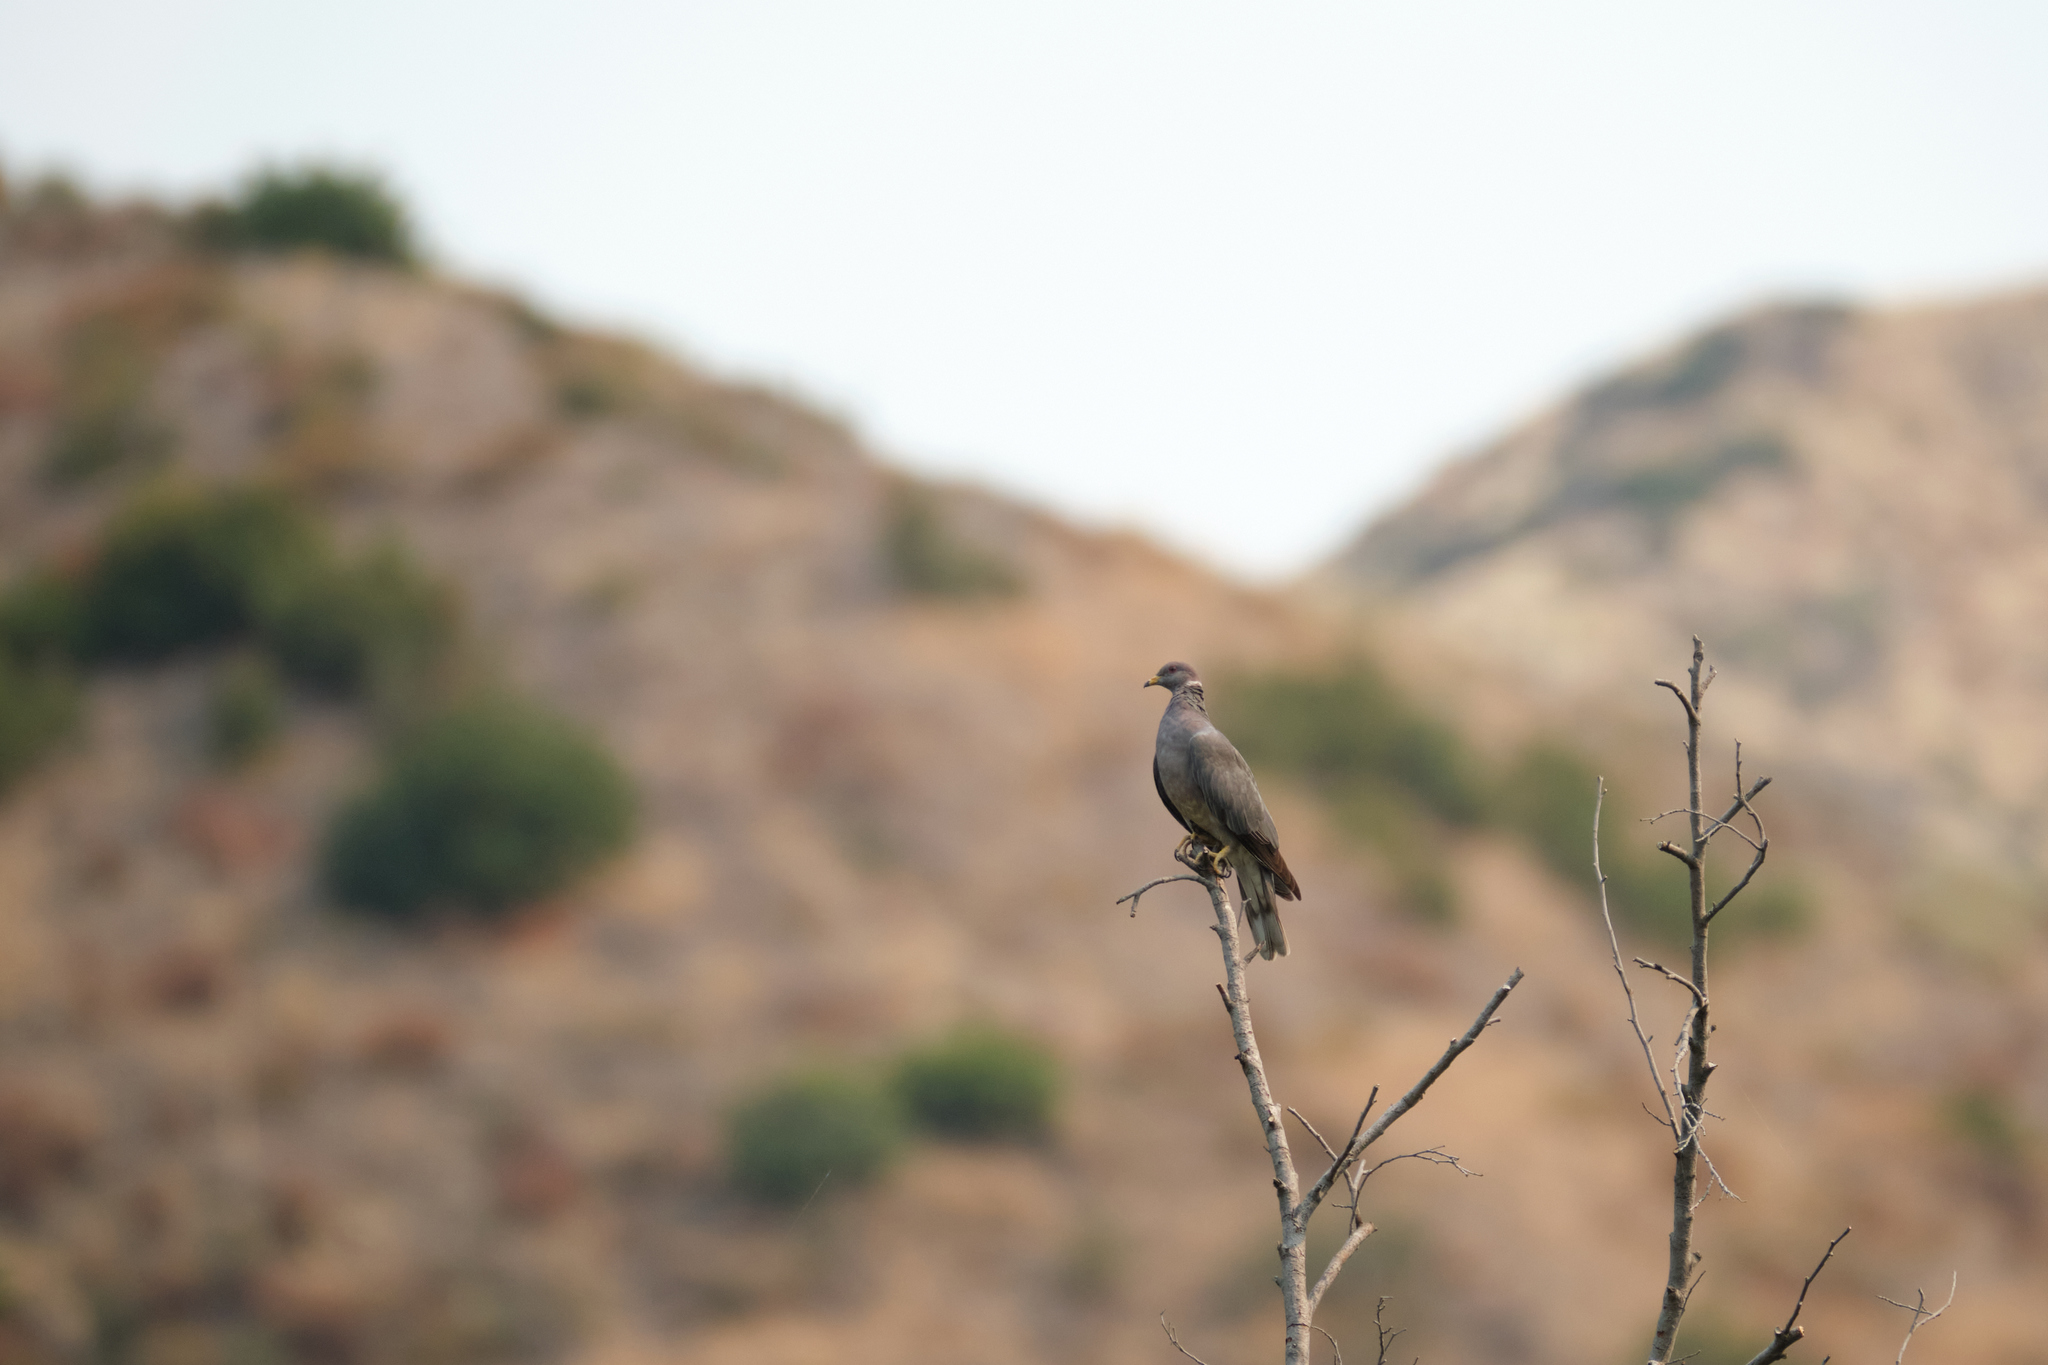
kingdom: Animalia
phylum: Chordata
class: Aves
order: Columbiformes
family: Columbidae
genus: Patagioenas
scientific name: Patagioenas fasciata
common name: Band-tailed pigeon
